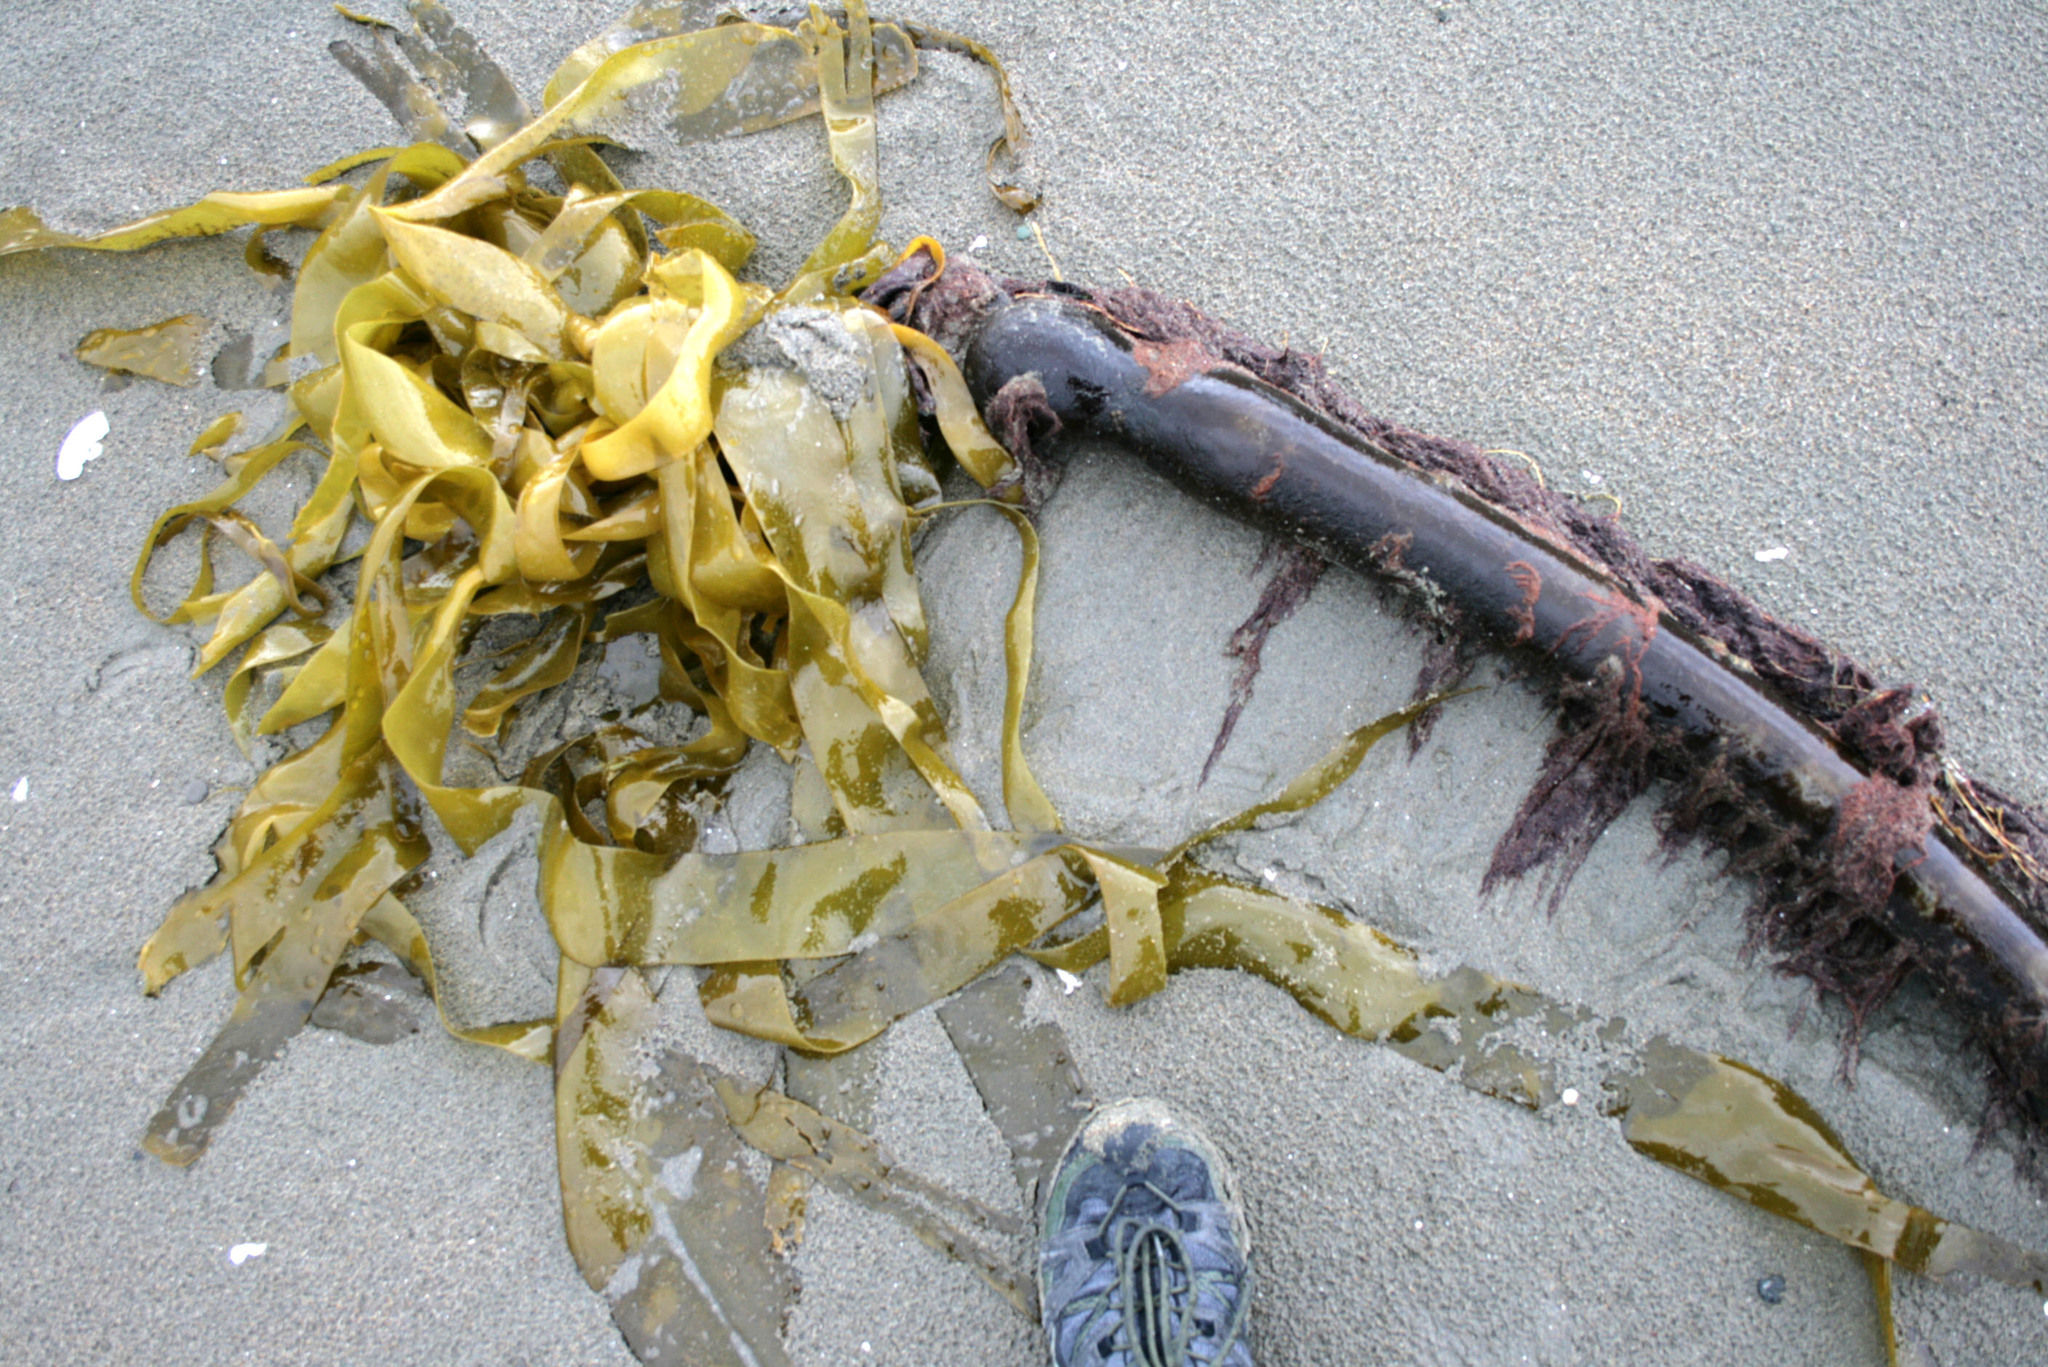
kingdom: Chromista
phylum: Ochrophyta
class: Phaeophyceae
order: Laminariales
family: Laminariaceae
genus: Nereocystis
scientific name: Nereocystis luetkeana
